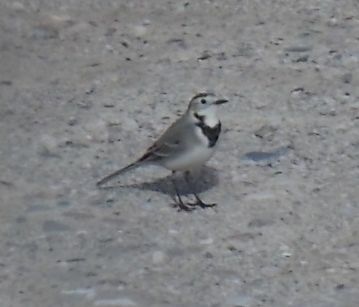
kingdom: Animalia
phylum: Chordata
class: Aves
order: Passeriformes
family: Motacillidae
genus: Motacilla
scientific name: Motacilla alba
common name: White wagtail
